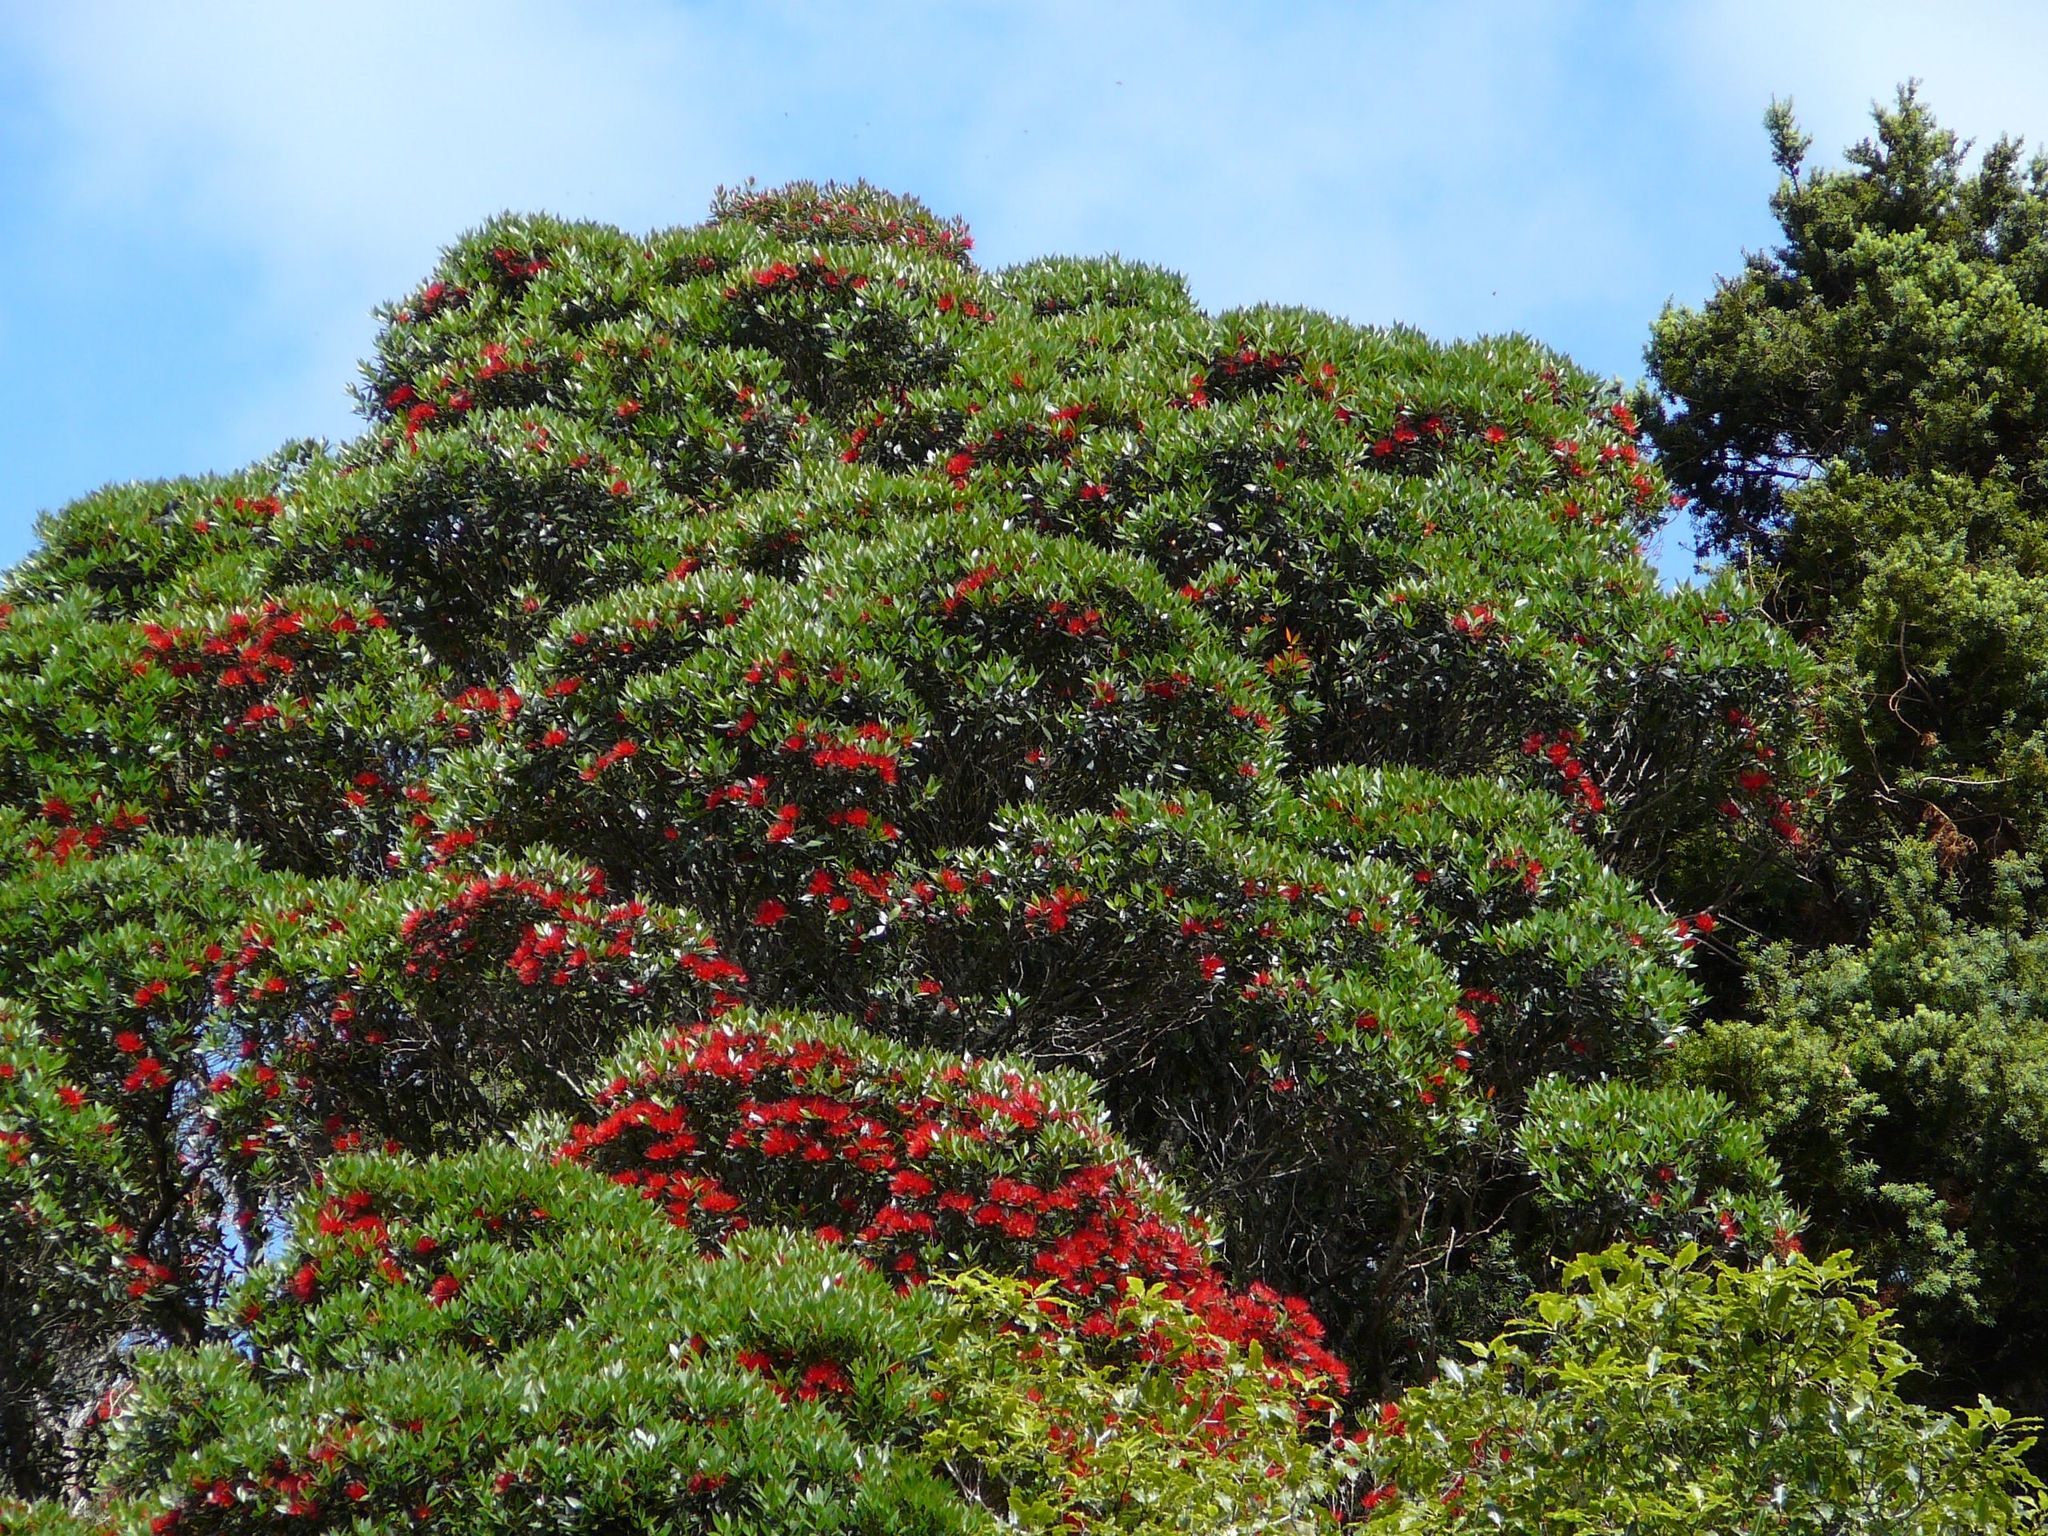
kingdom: Plantae
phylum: Tracheophyta
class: Magnoliopsida
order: Myrtales
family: Myrtaceae
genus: Metrosideros
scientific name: Metrosideros umbellata
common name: Southern rata
